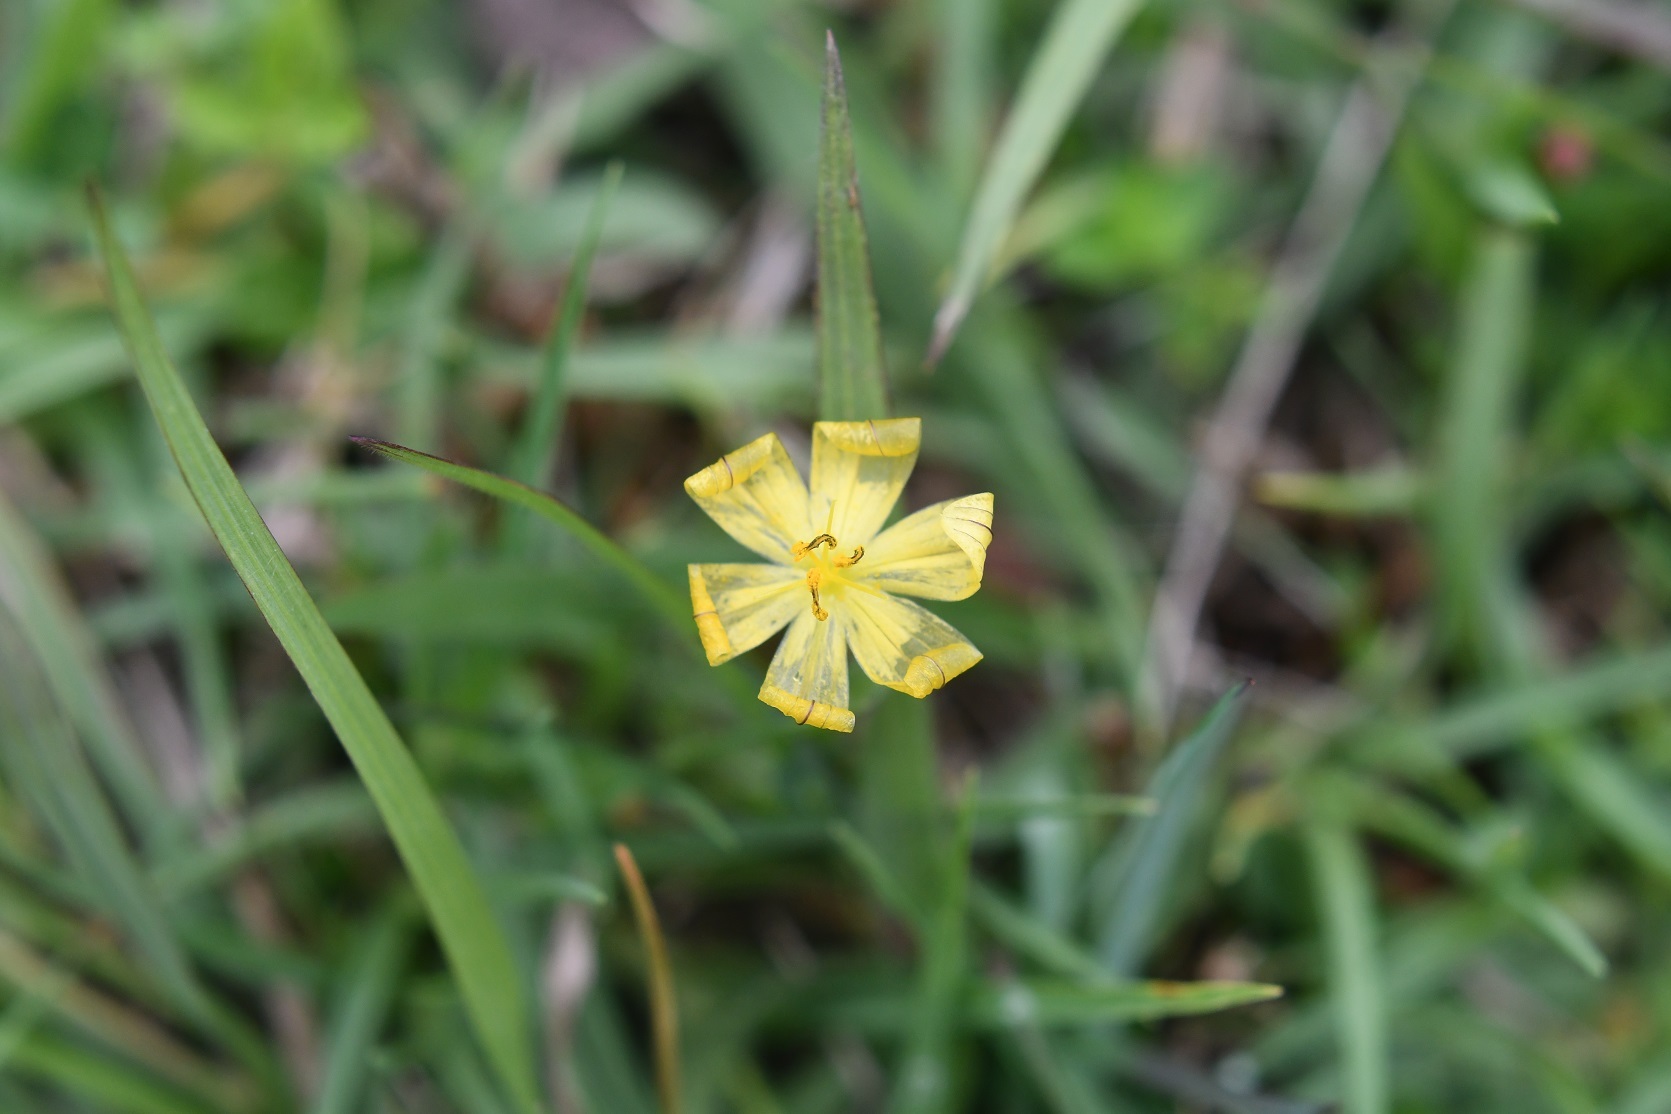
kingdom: Plantae
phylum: Tracheophyta
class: Liliopsida
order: Asparagales
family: Iridaceae
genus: Sisyrinchium
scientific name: Sisyrinchium angustissimum
